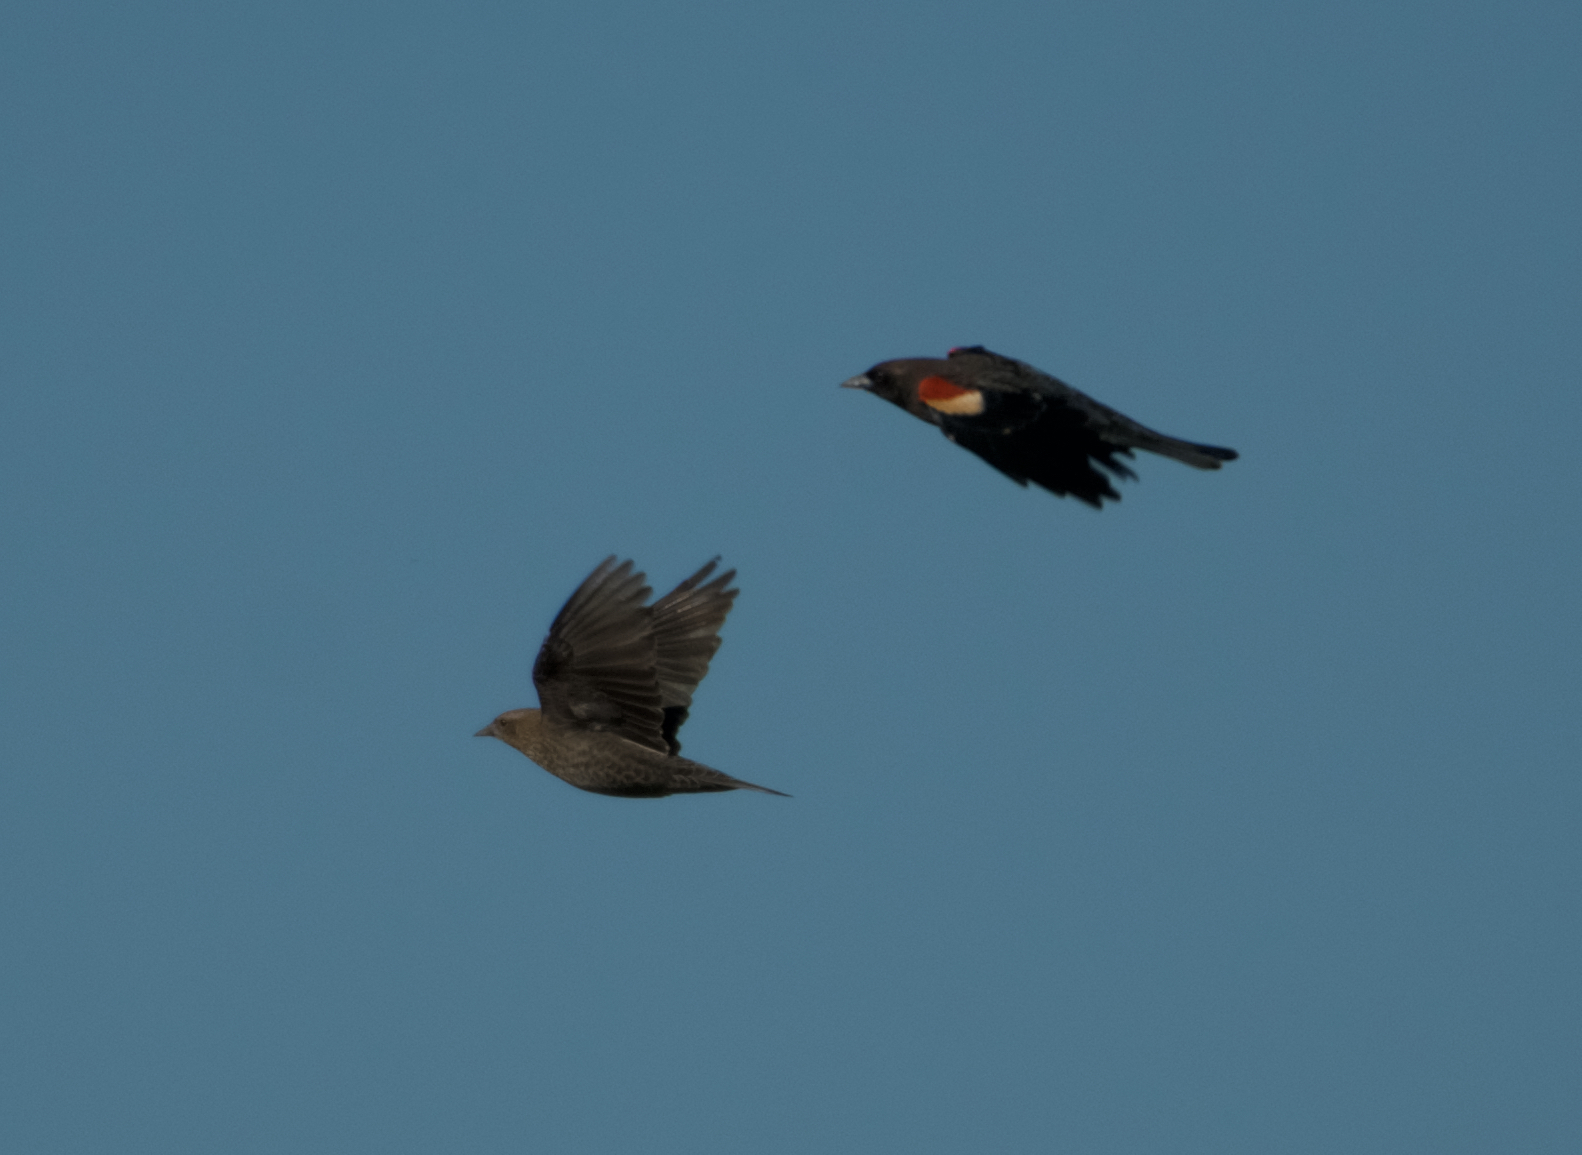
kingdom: Animalia
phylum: Chordata
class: Aves
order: Passeriformes
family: Icteridae
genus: Agelaius
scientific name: Agelaius tricolor
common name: Tricolored blackbird
